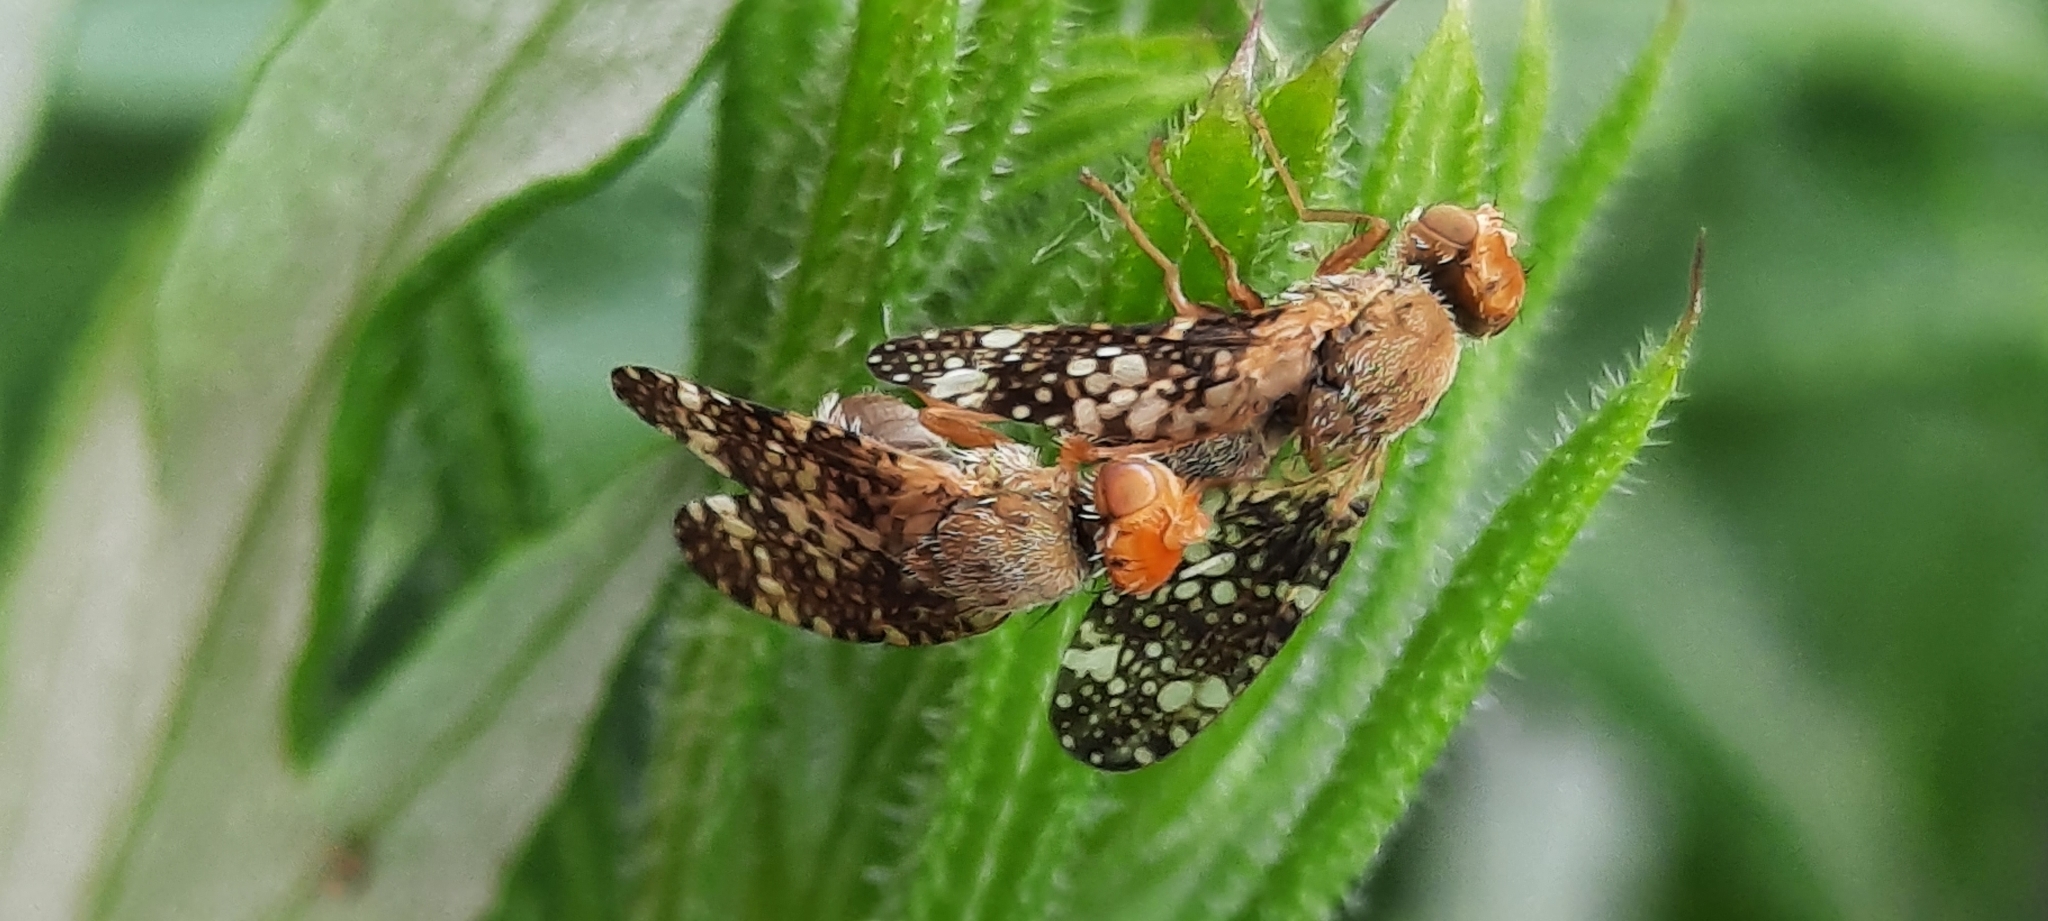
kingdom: Animalia
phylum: Arthropoda
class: Insecta
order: Diptera
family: Tephritidae
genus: Oxyna
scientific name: Oxyna parietina
